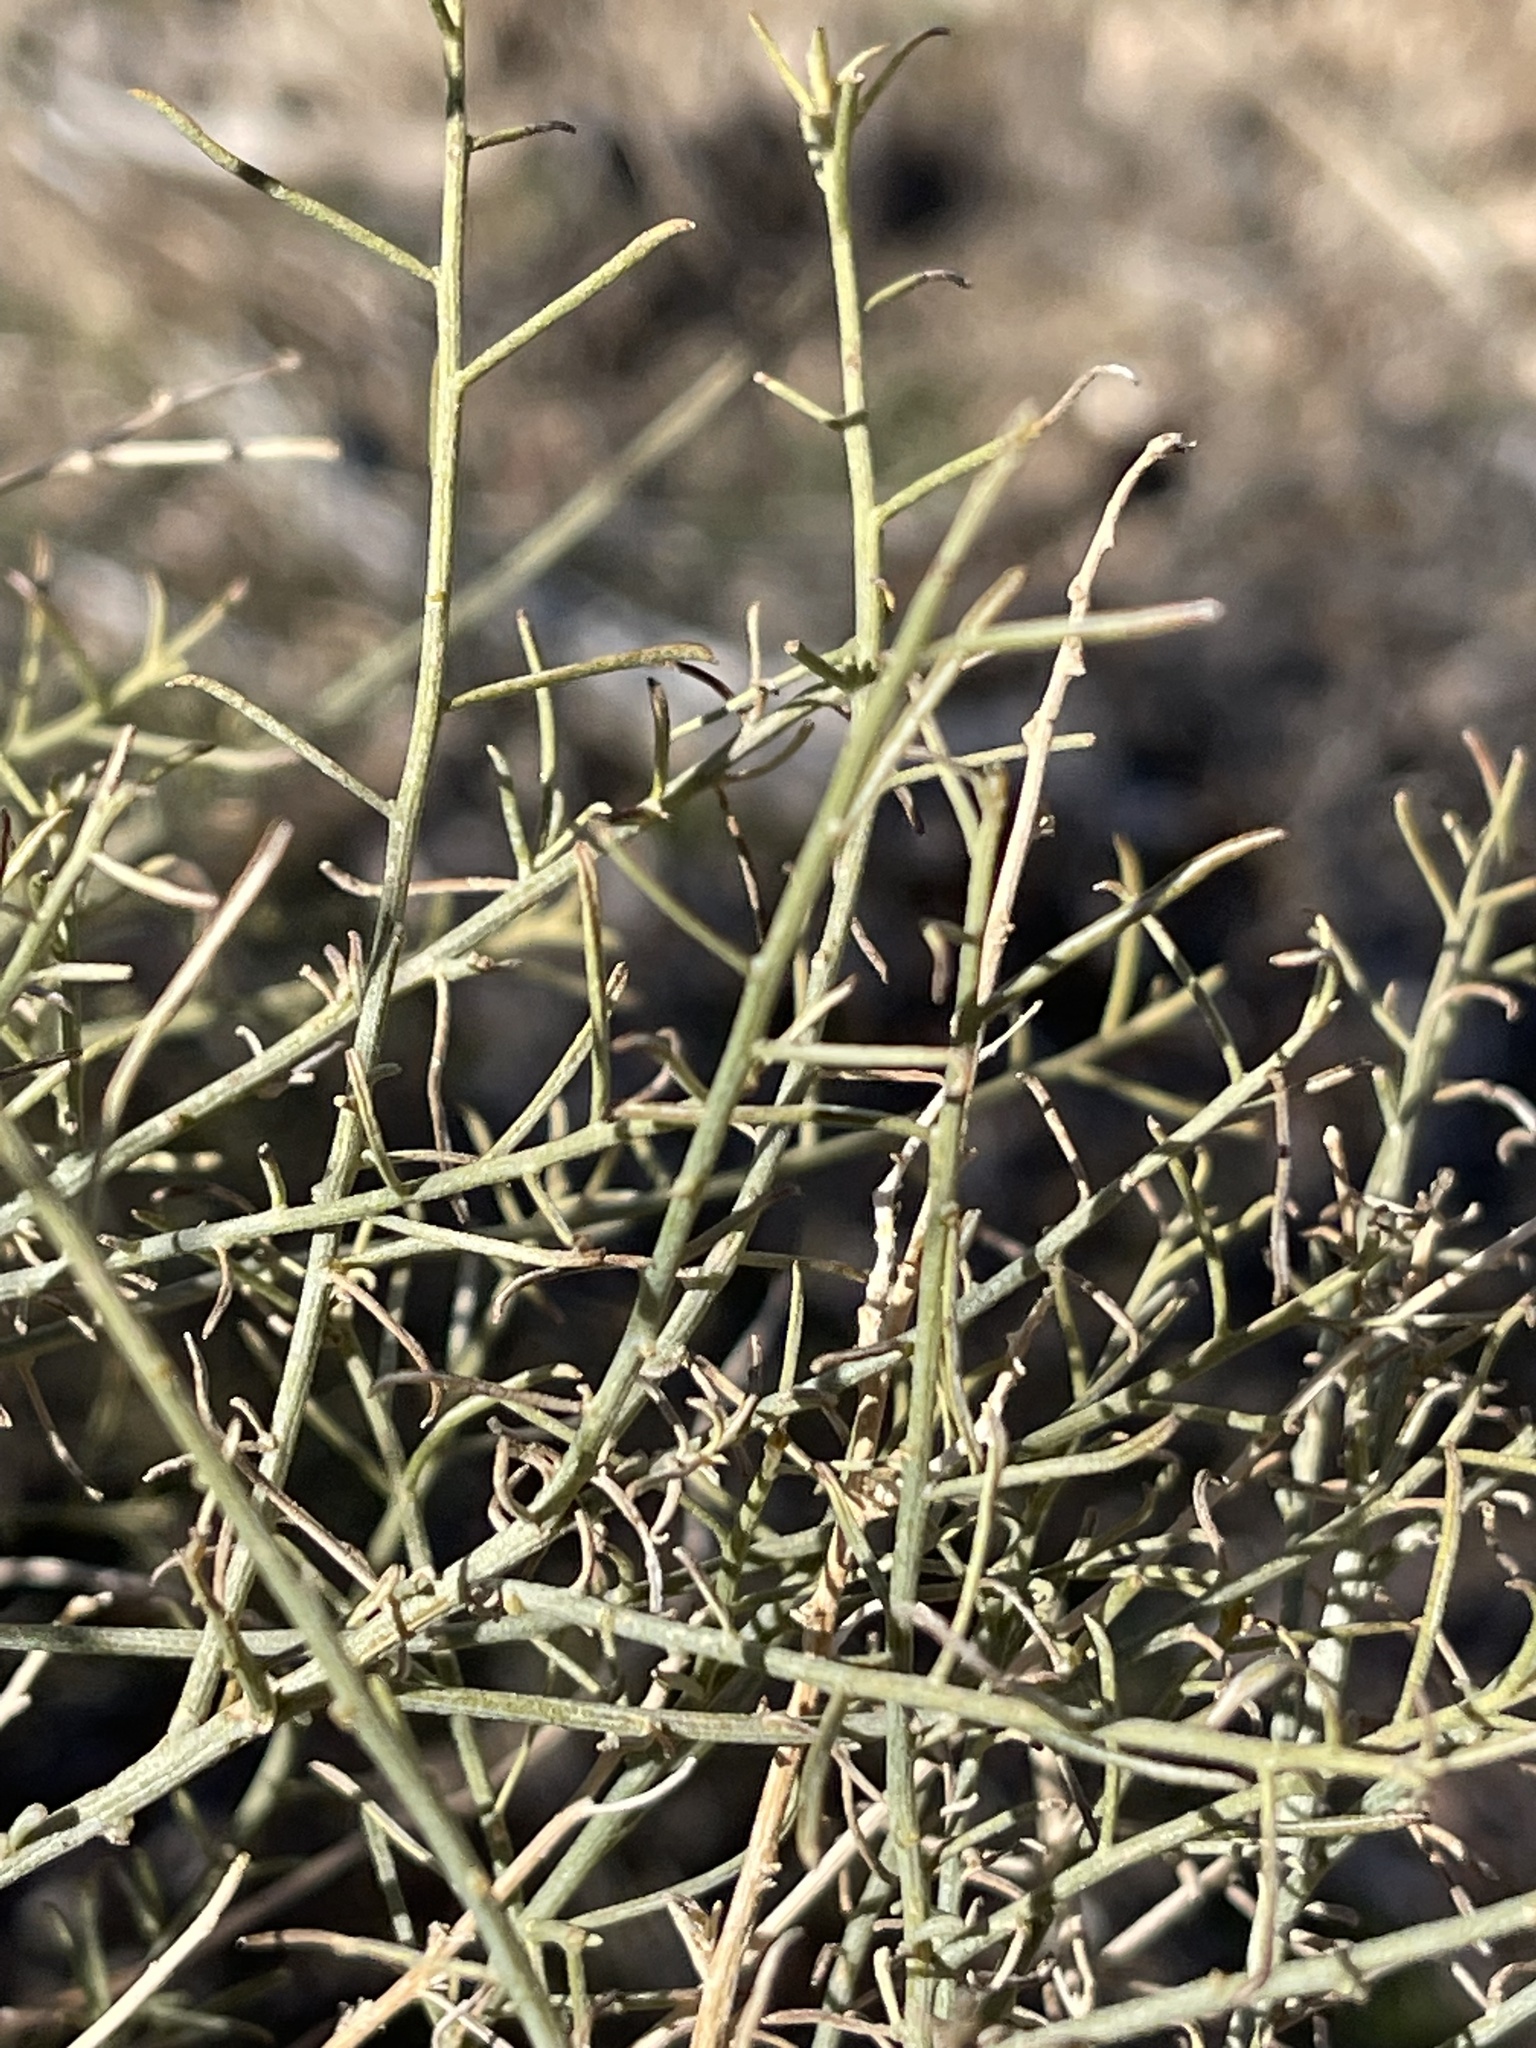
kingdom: Plantae
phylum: Tracheophyta
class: Magnoliopsida
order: Asterales
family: Asteraceae
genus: Ambrosia
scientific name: Ambrosia salsola
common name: Burrobrush
